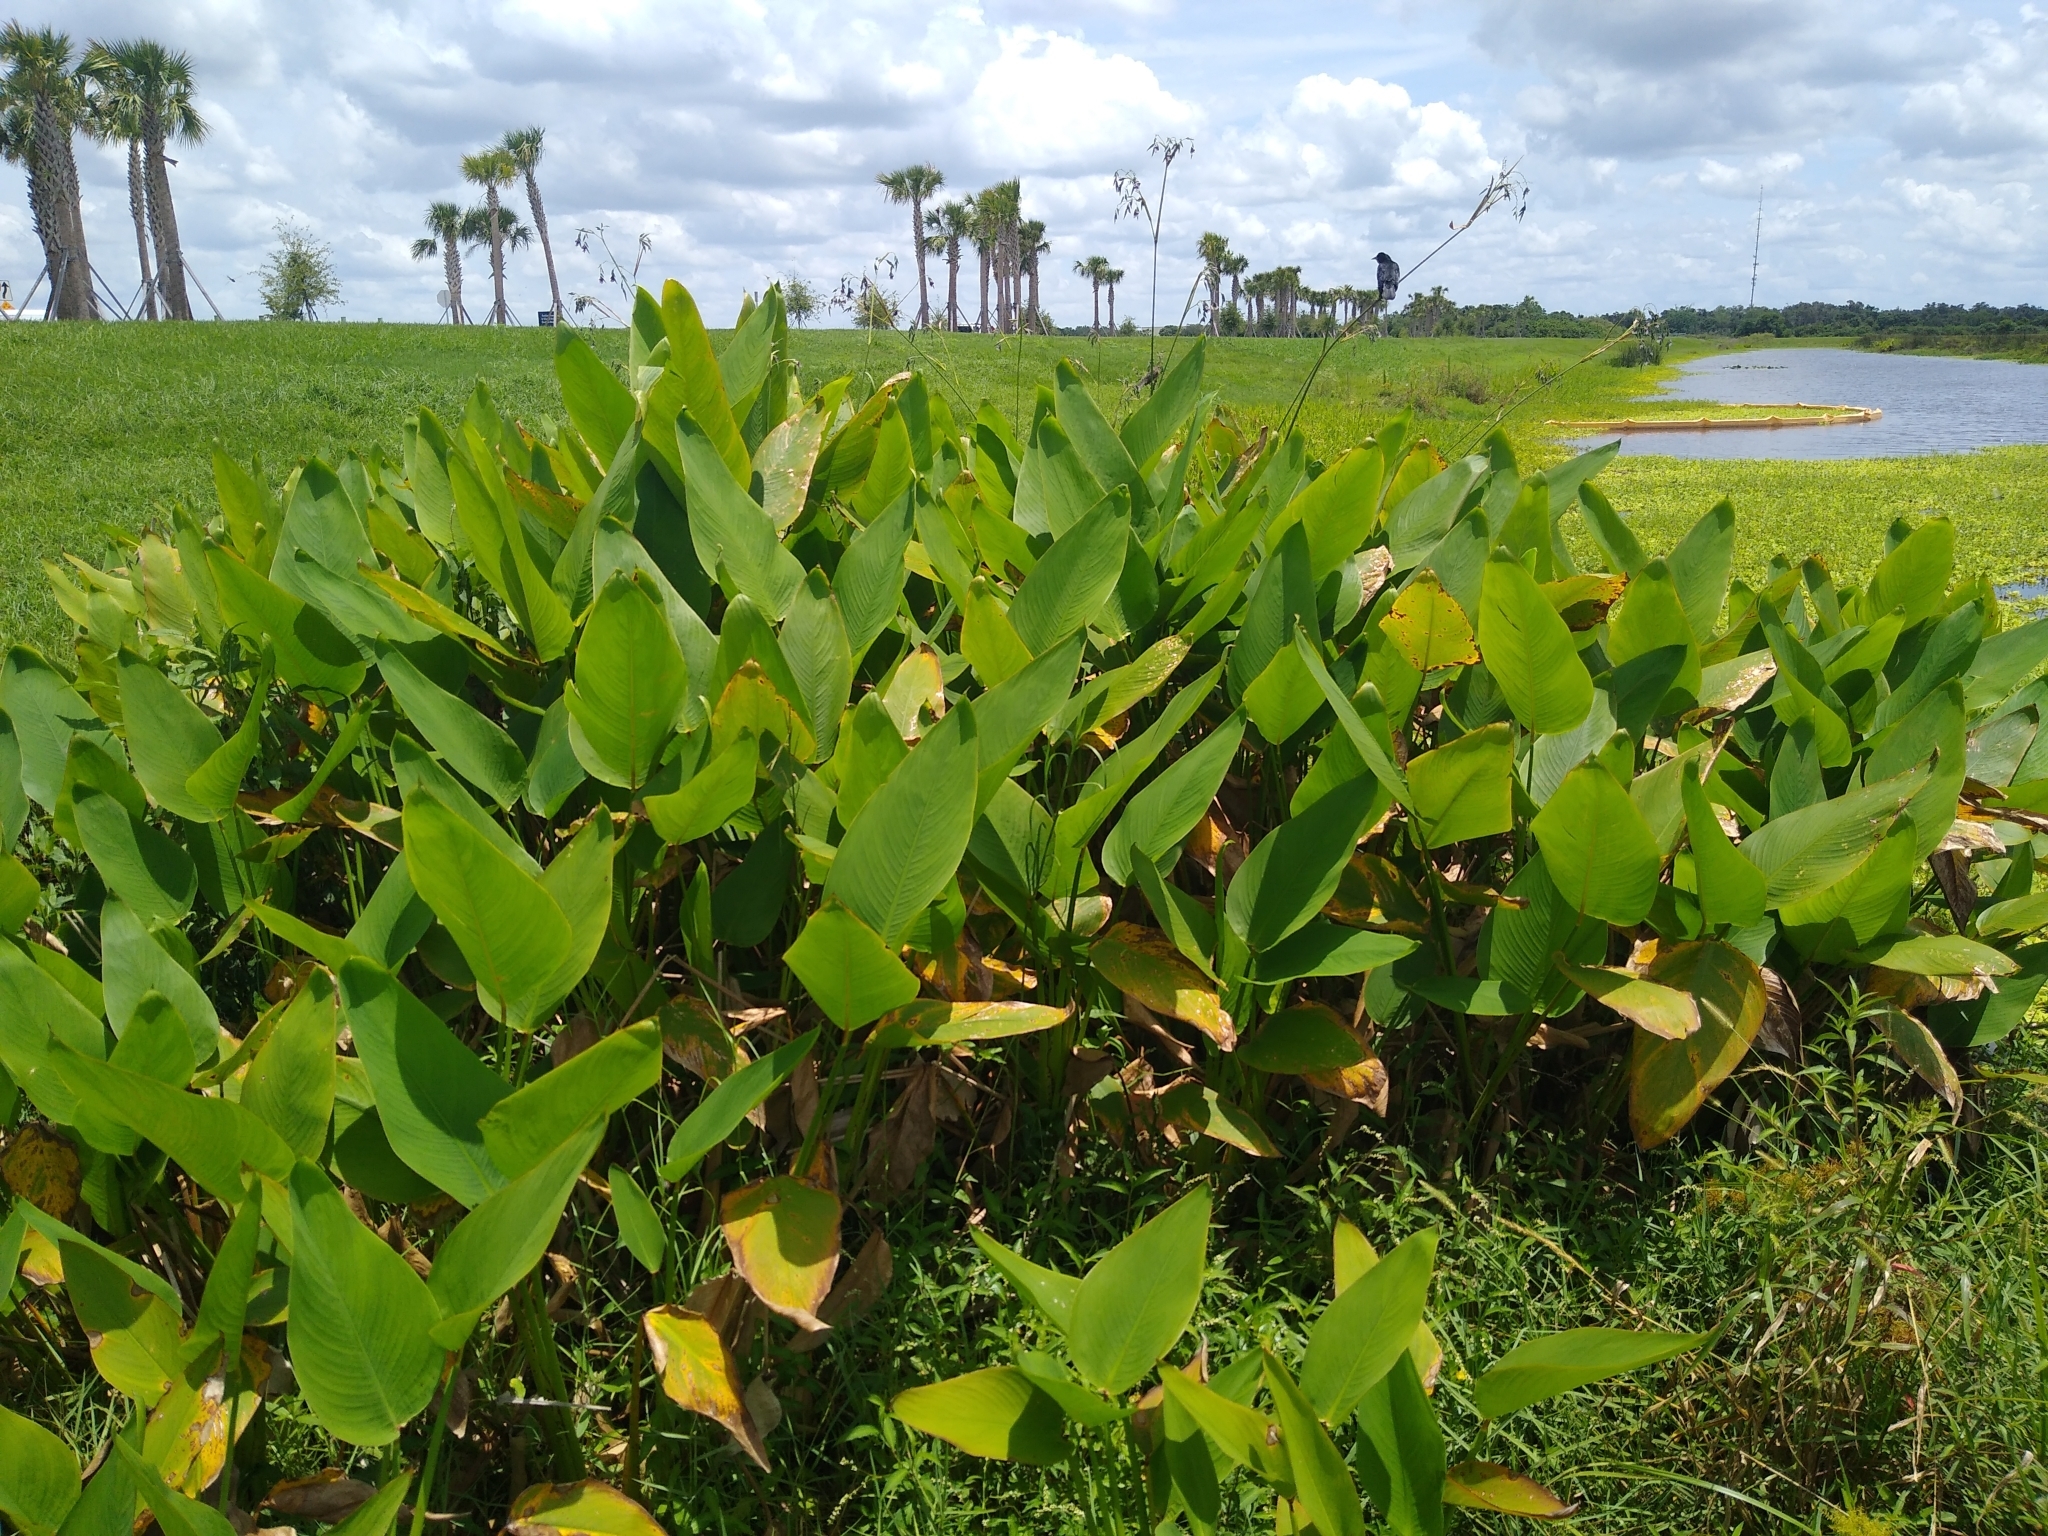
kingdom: Plantae
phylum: Tracheophyta
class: Liliopsida
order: Zingiberales
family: Marantaceae
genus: Thalia
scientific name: Thalia geniculata
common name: Arrowroot
